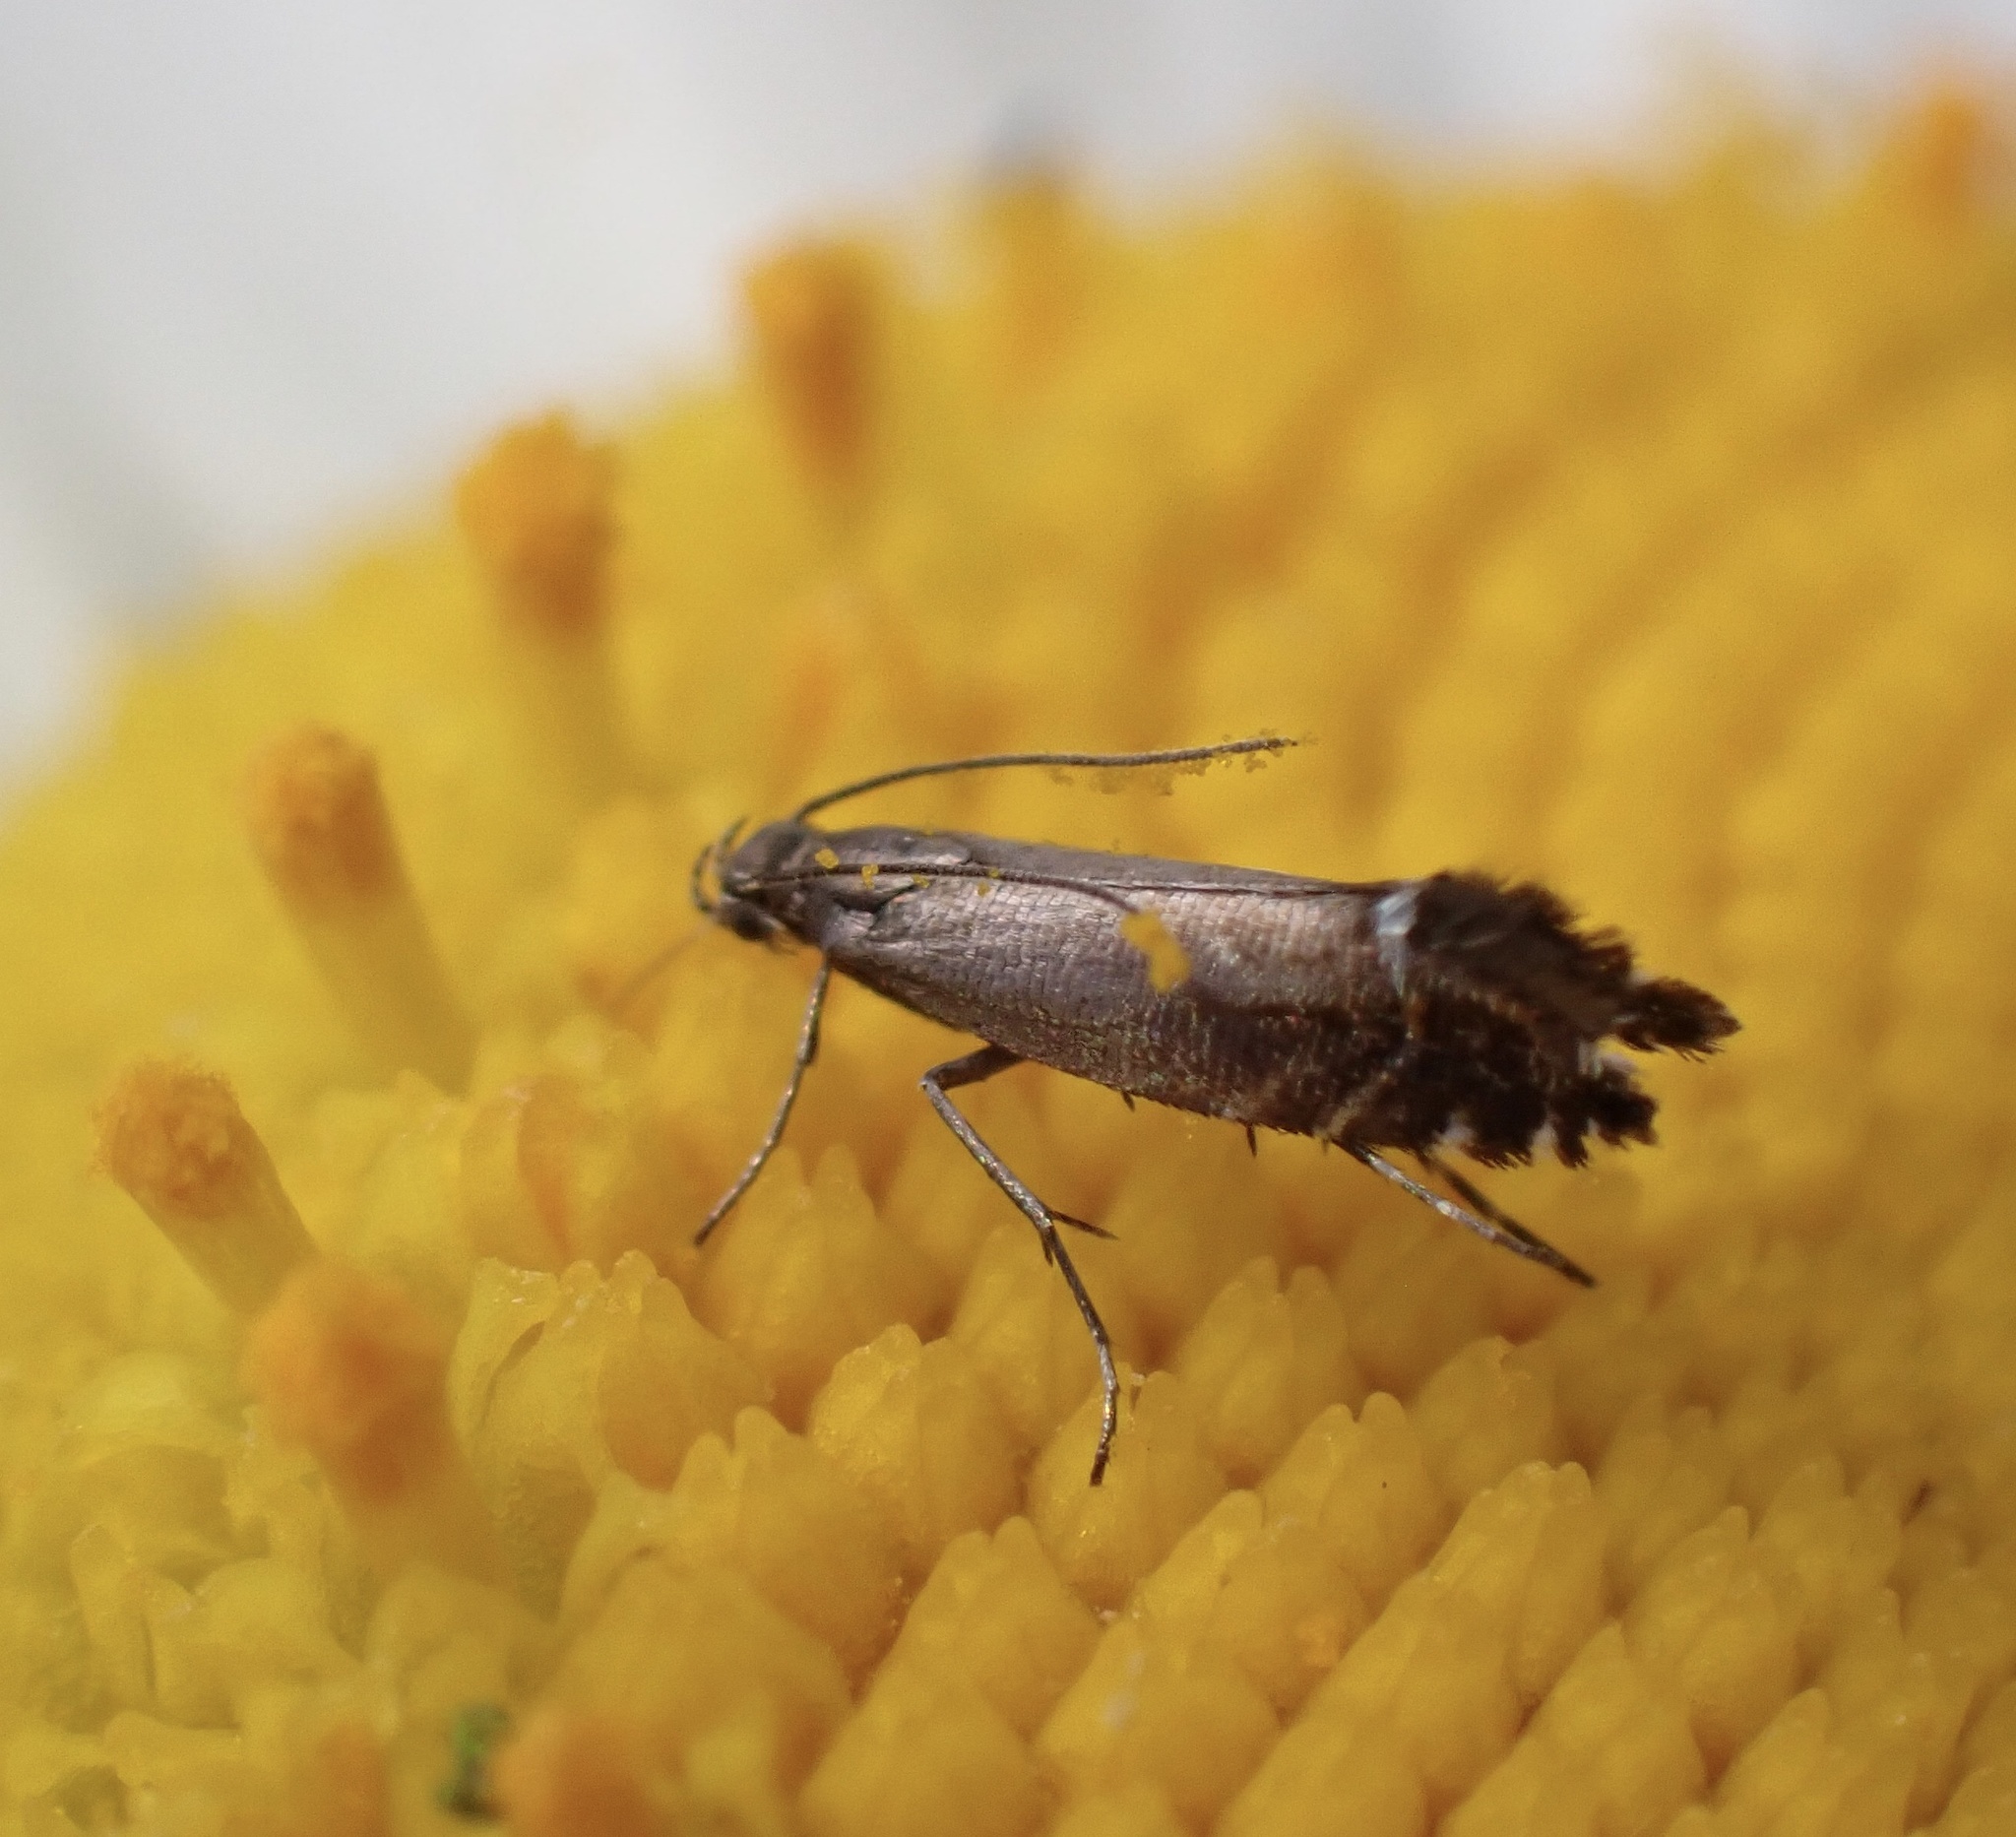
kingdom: Animalia
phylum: Arthropoda
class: Insecta
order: Lepidoptera
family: Glyphipterigidae
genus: Glyphipterix
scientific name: Glyphipterix simpliciella
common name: Cocksfoot moth
